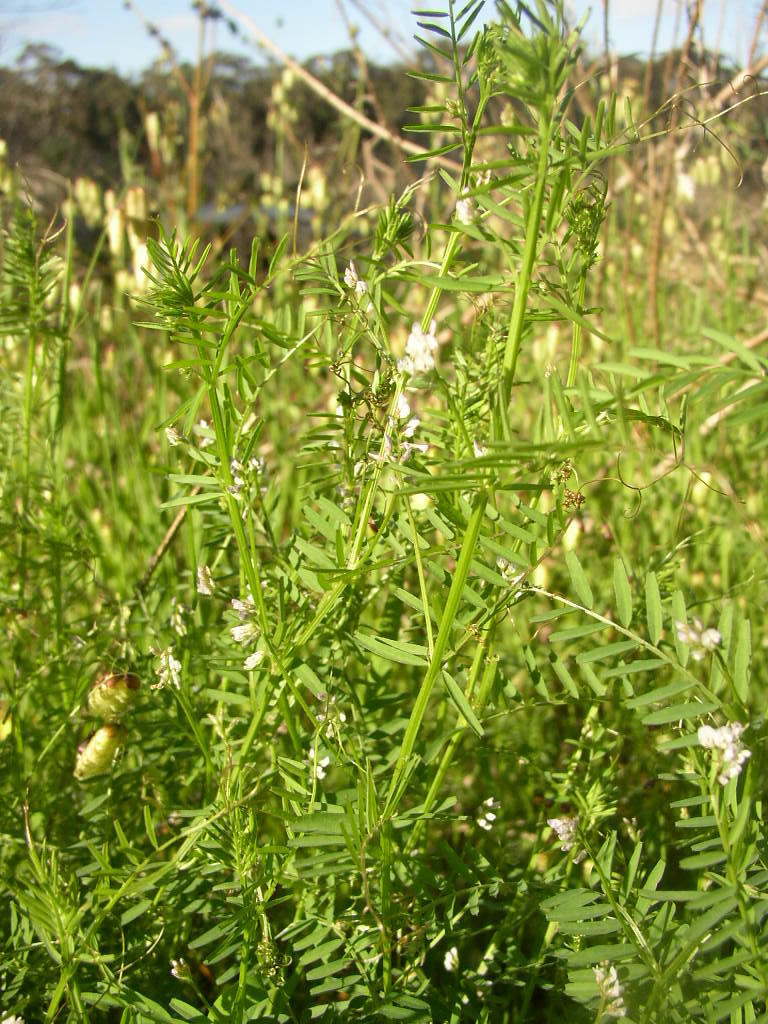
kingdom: Plantae
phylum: Tracheophyta
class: Magnoliopsida
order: Fabales
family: Fabaceae
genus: Vicia
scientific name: Vicia hirsuta
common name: Tiny vetch
